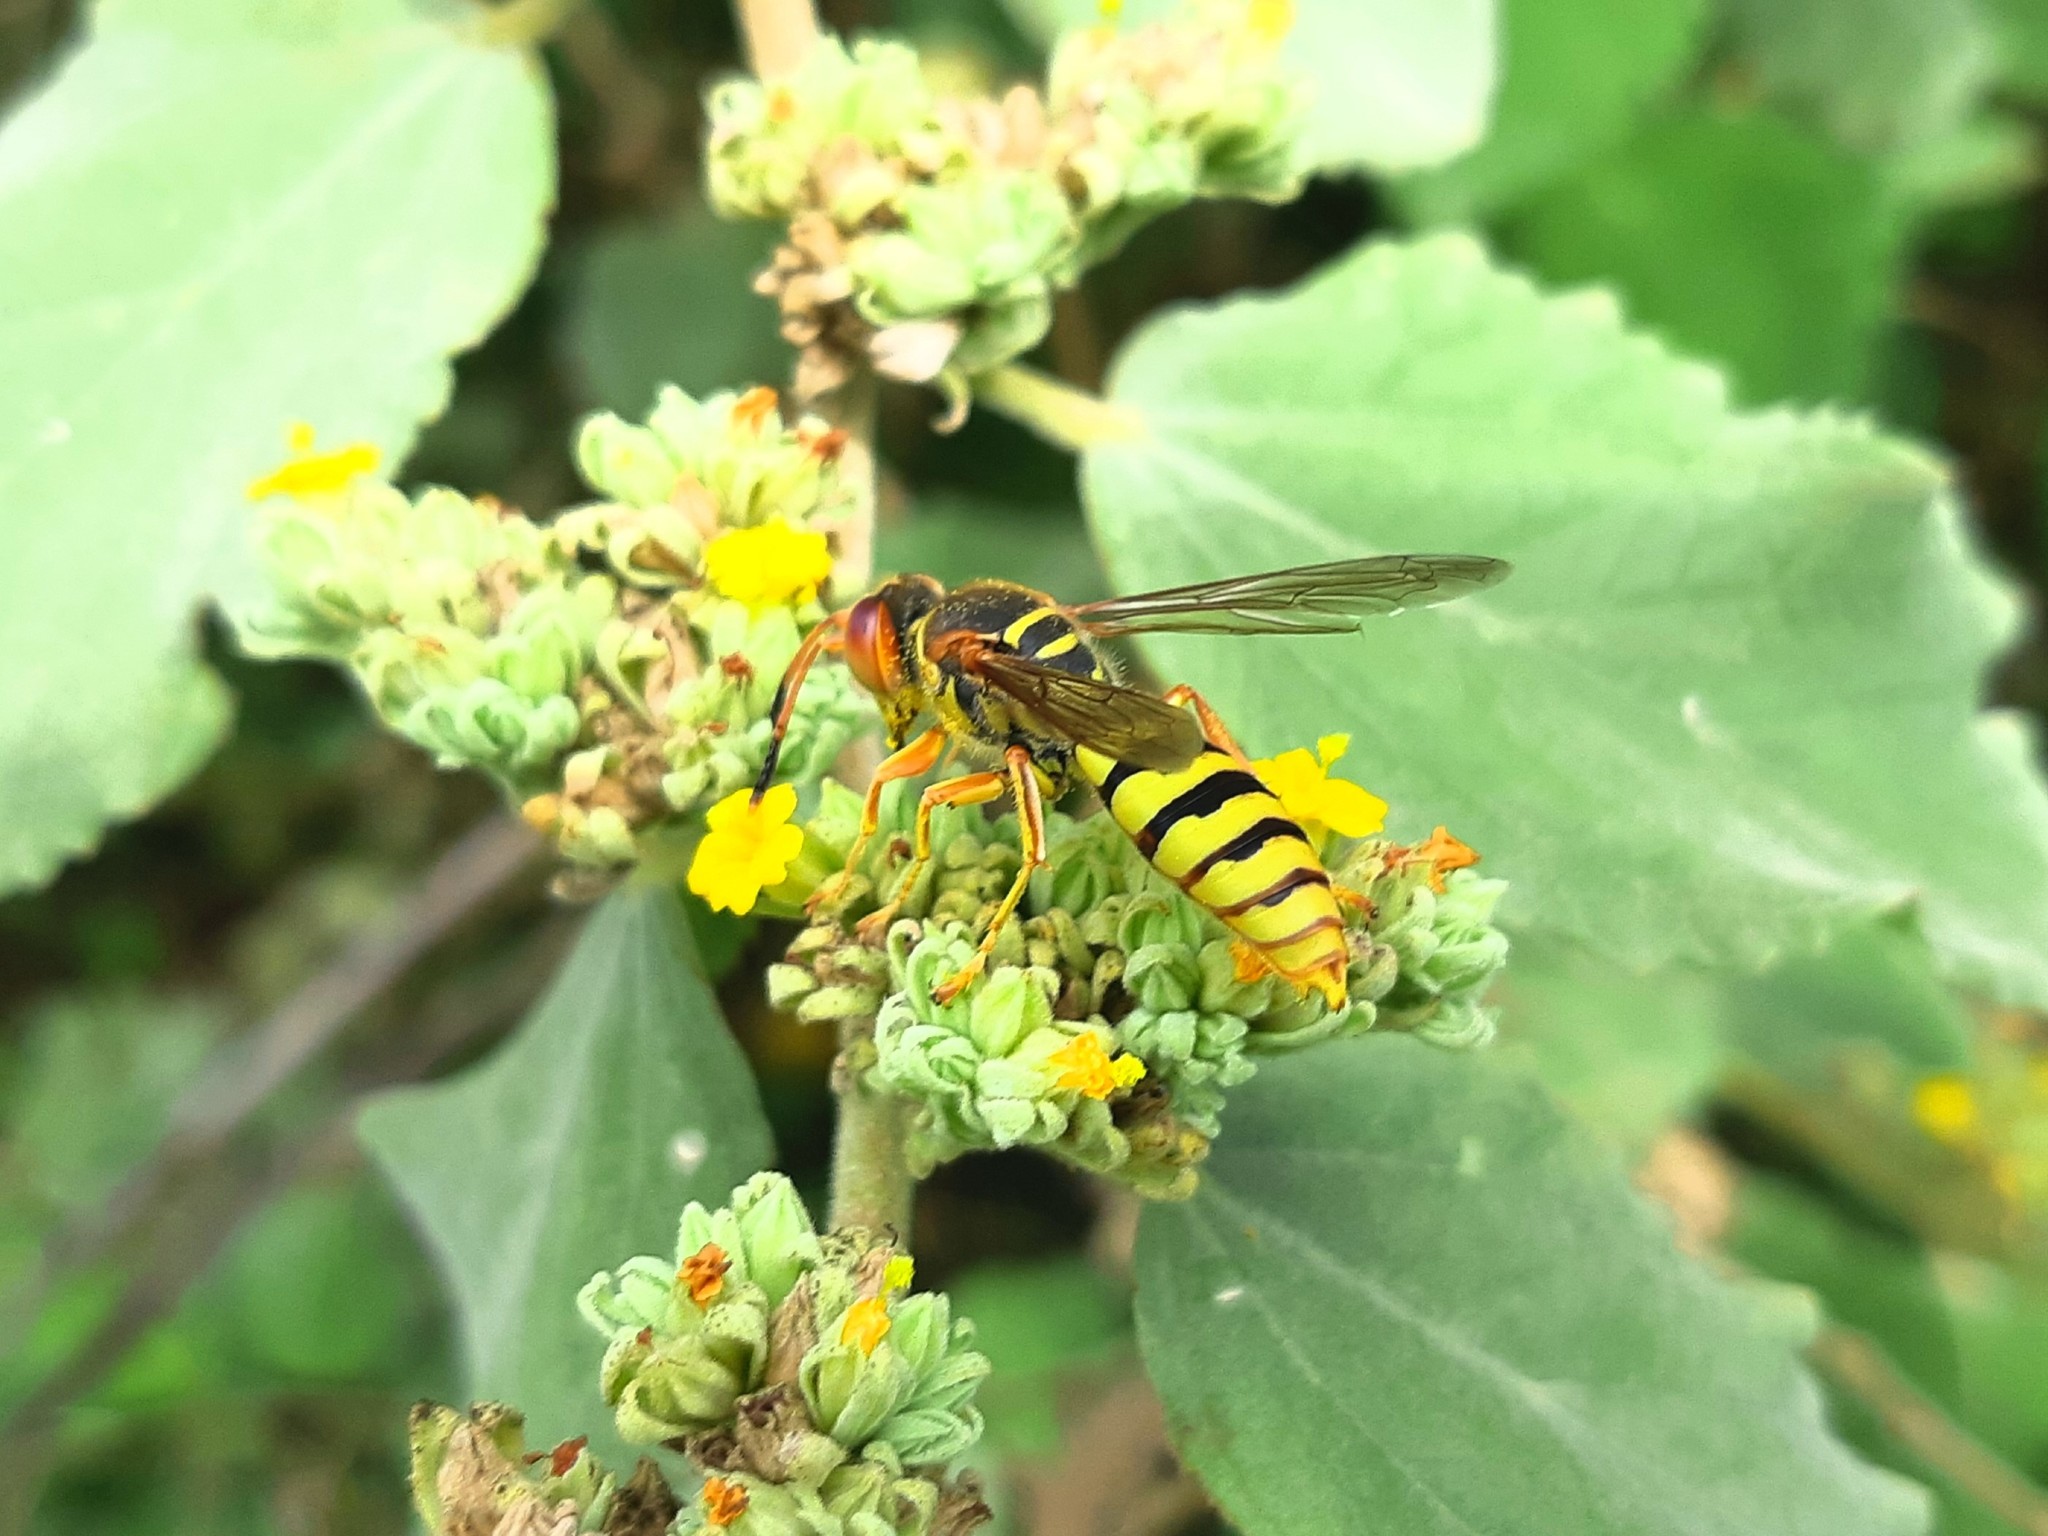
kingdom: Animalia
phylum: Arthropoda
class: Insecta
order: Hymenoptera
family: Crabronidae
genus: Rubrica
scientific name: Rubrica nasuta
